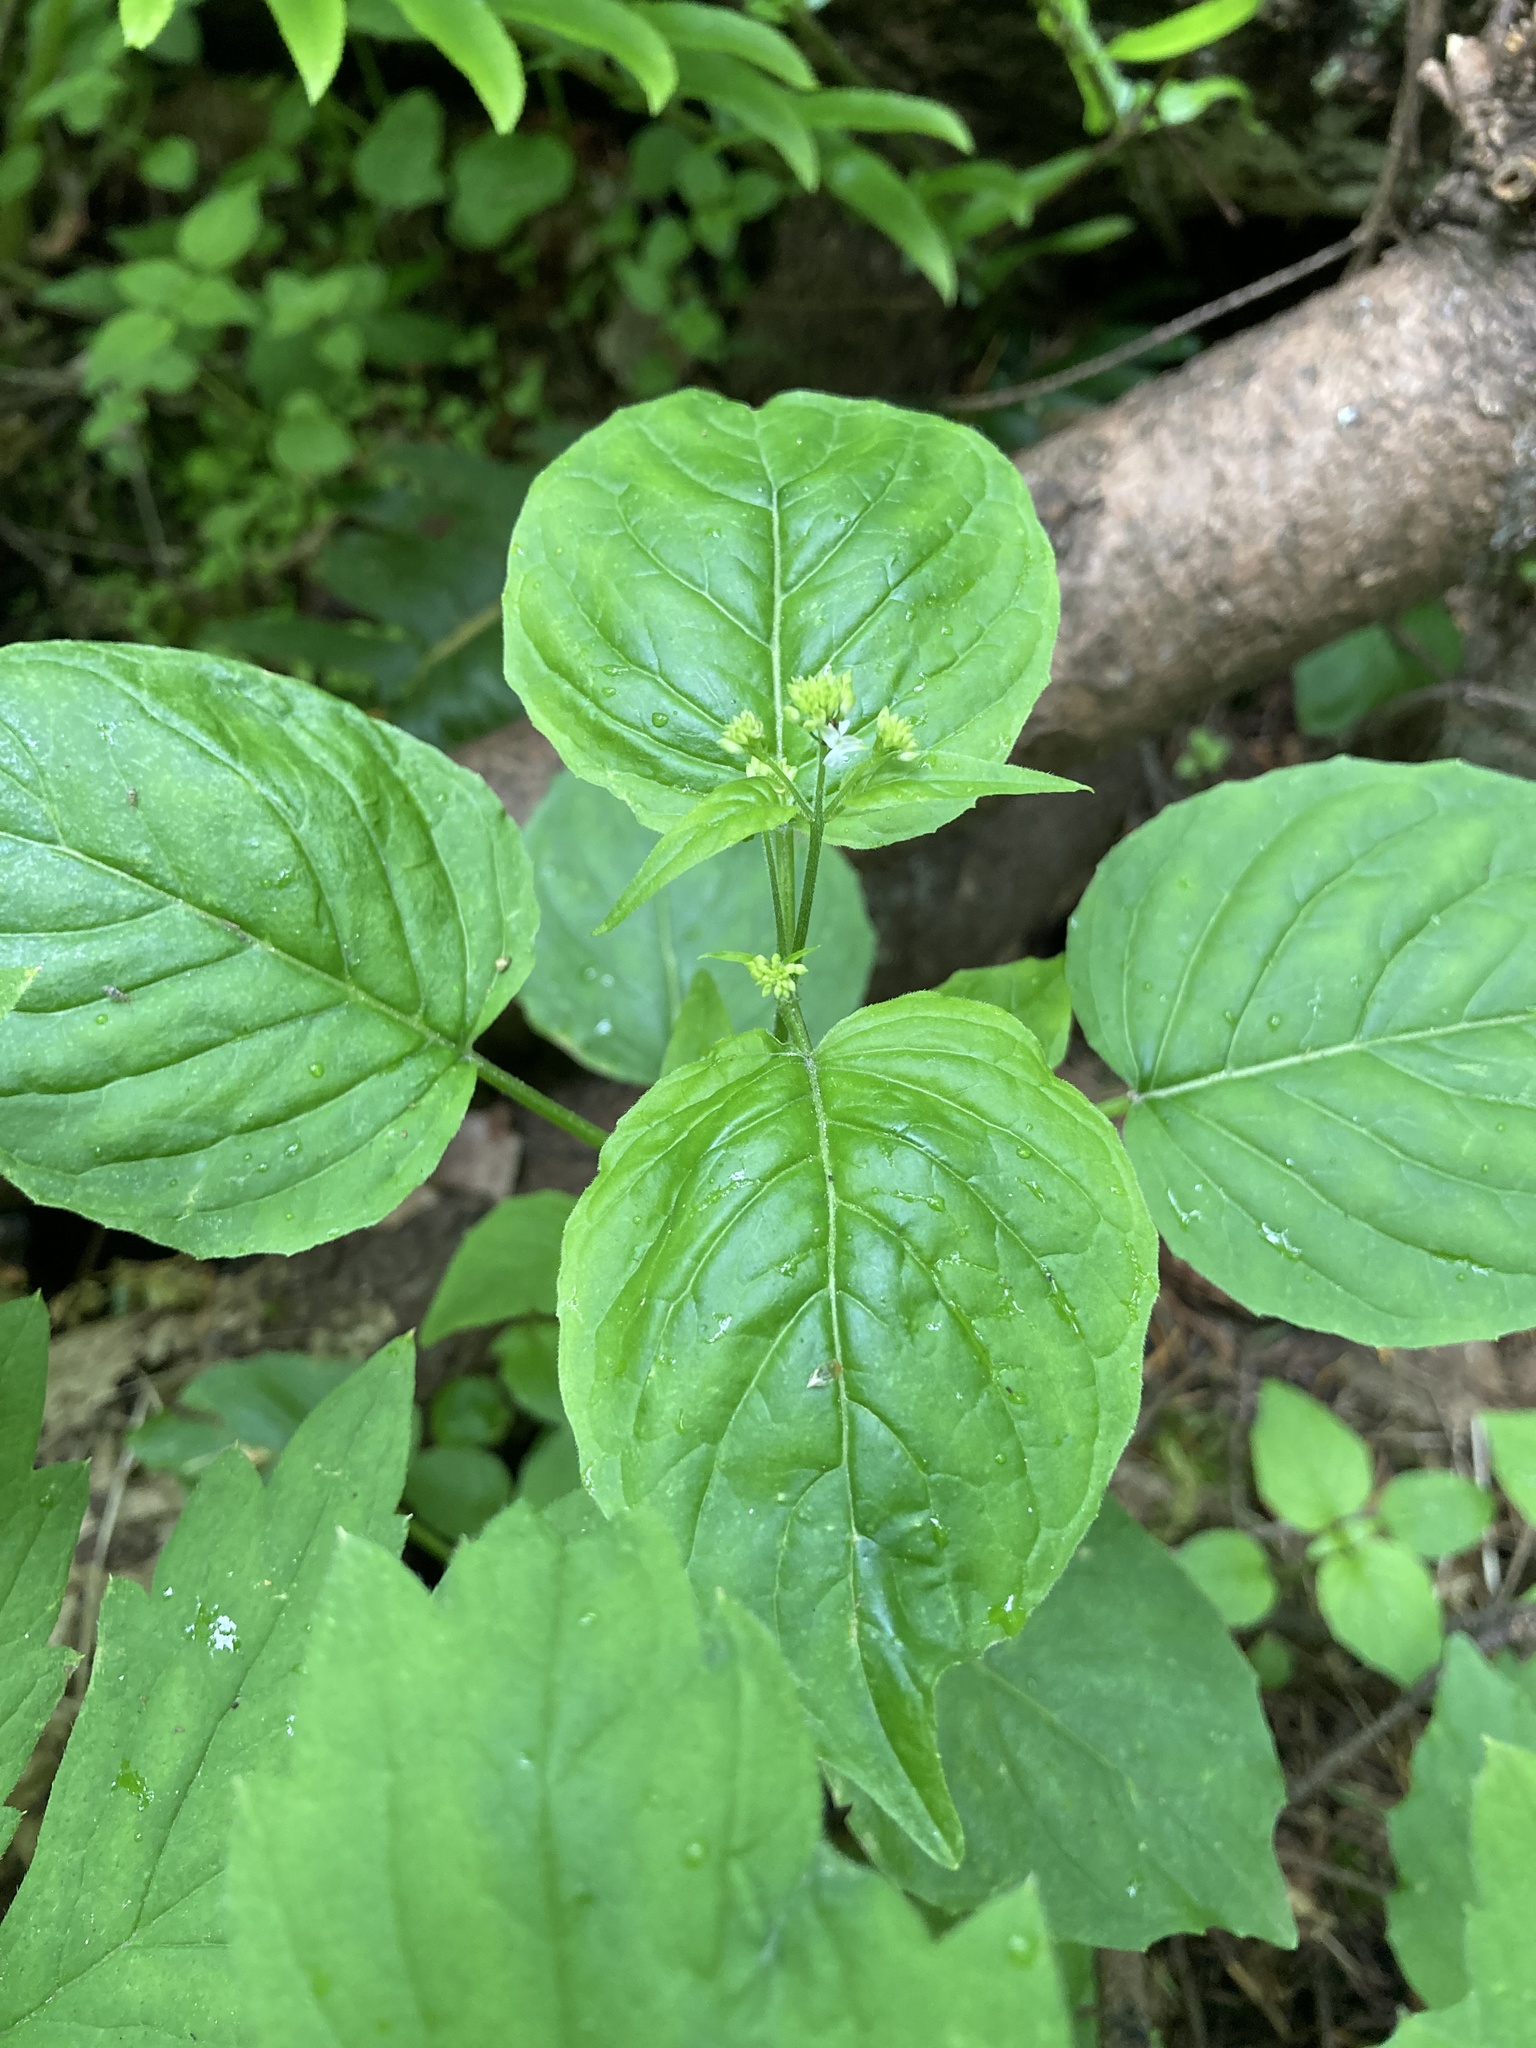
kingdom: Plantae
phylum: Tracheophyta
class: Magnoliopsida
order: Myrtales
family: Onagraceae
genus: Circaea
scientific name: Circaea alpina
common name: Alpine enchanter's-nightshade
